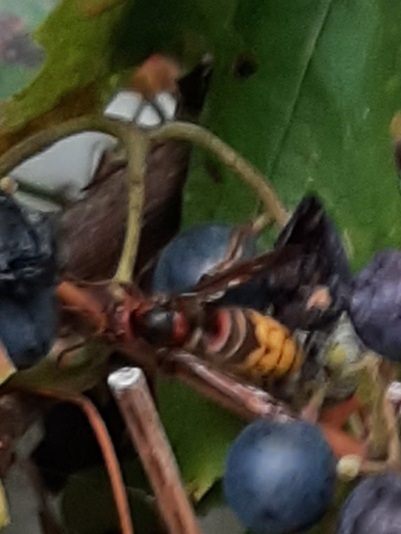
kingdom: Animalia
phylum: Arthropoda
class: Insecta
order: Hymenoptera
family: Vespidae
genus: Vespa
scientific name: Vespa velutina
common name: Asian hornet
